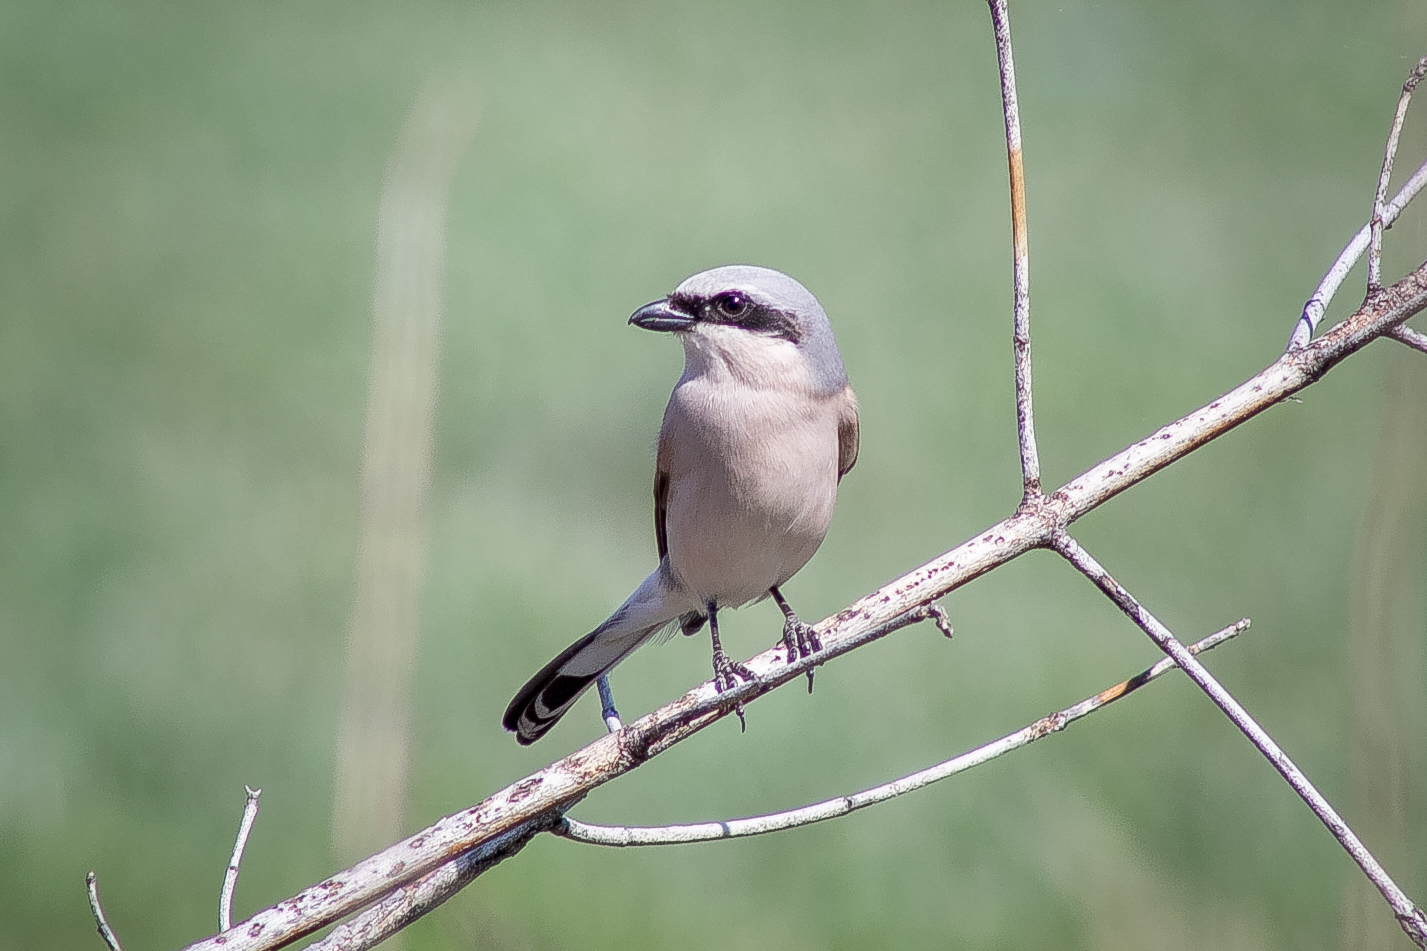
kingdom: Animalia
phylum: Chordata
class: Aves
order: Passeriformes
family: Laniidae
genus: Lanius
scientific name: Lanius collurio
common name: Red-backed shrike
